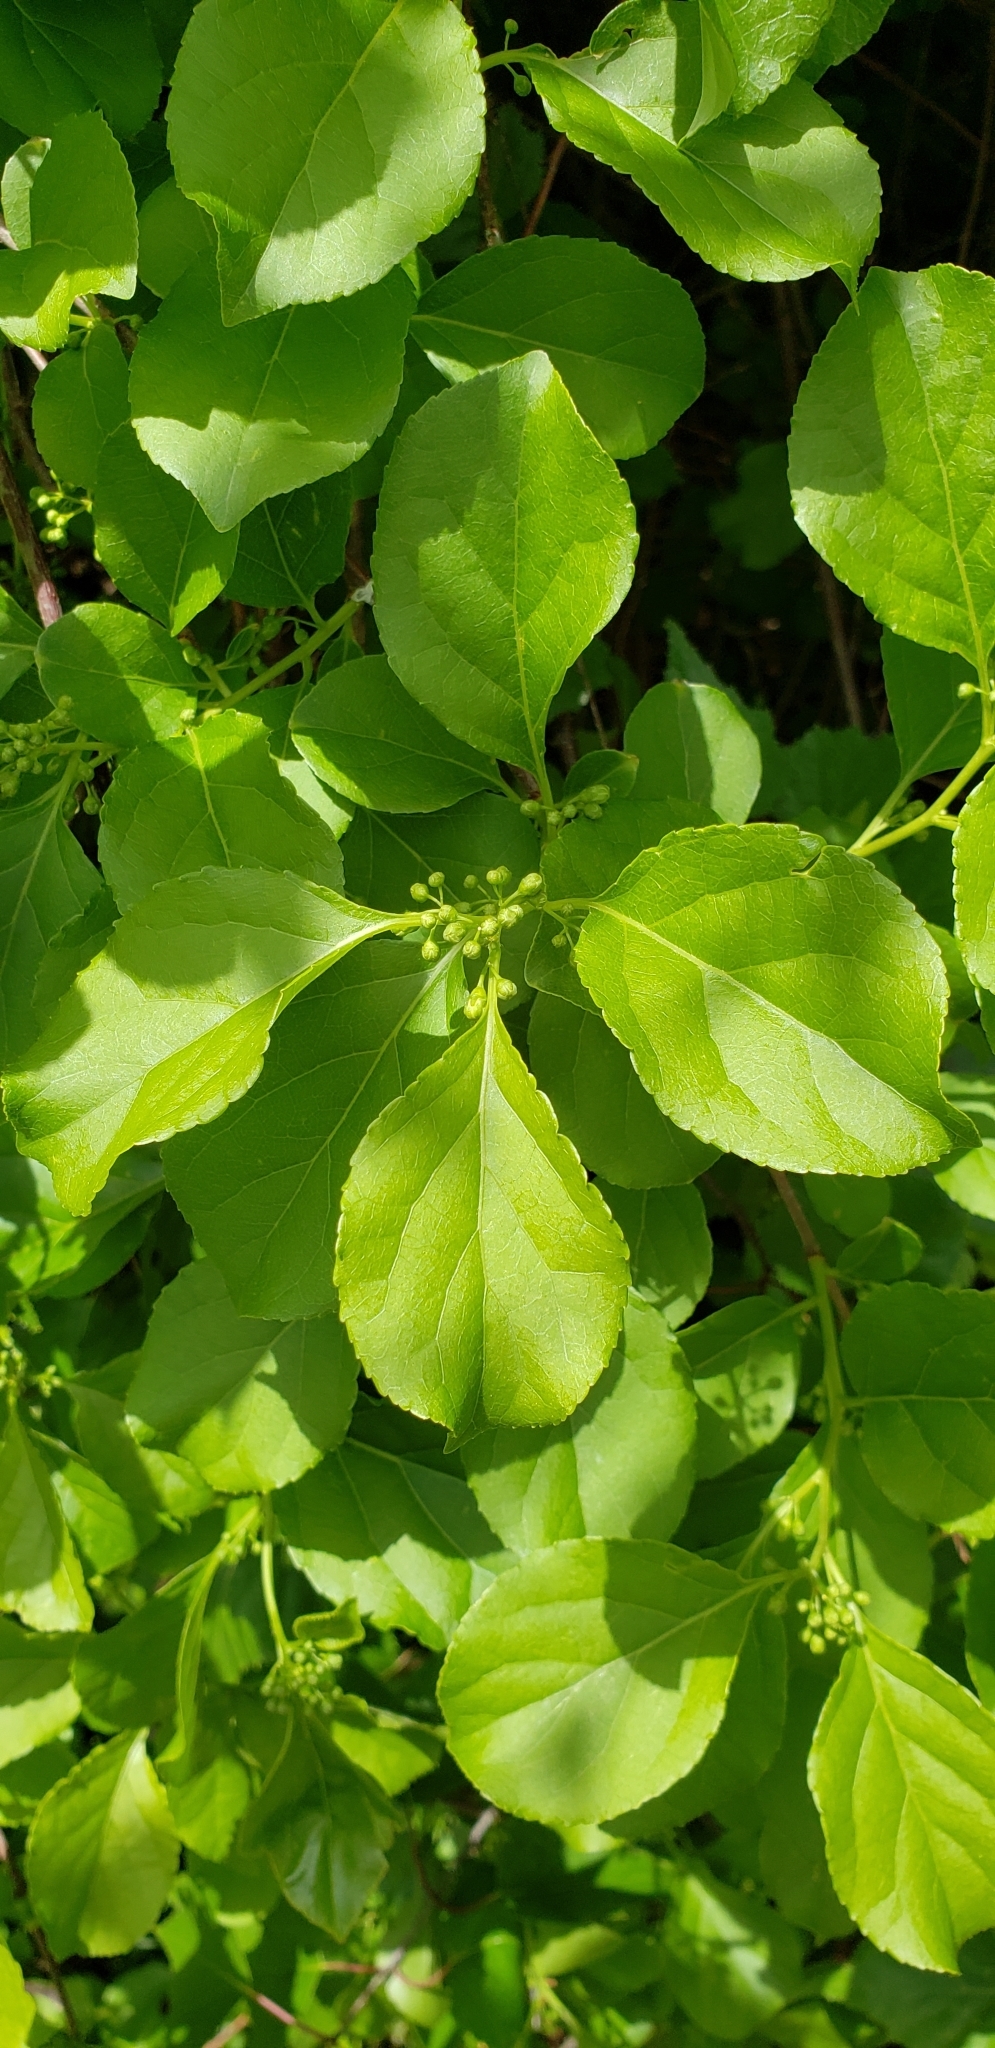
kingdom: Plantae
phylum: Tracheophyta
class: Magnoliopsida
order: Celastrales
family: Celastraceae
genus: Celastrus
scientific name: Celastrus orbiculatus
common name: Oriental bittersweet
